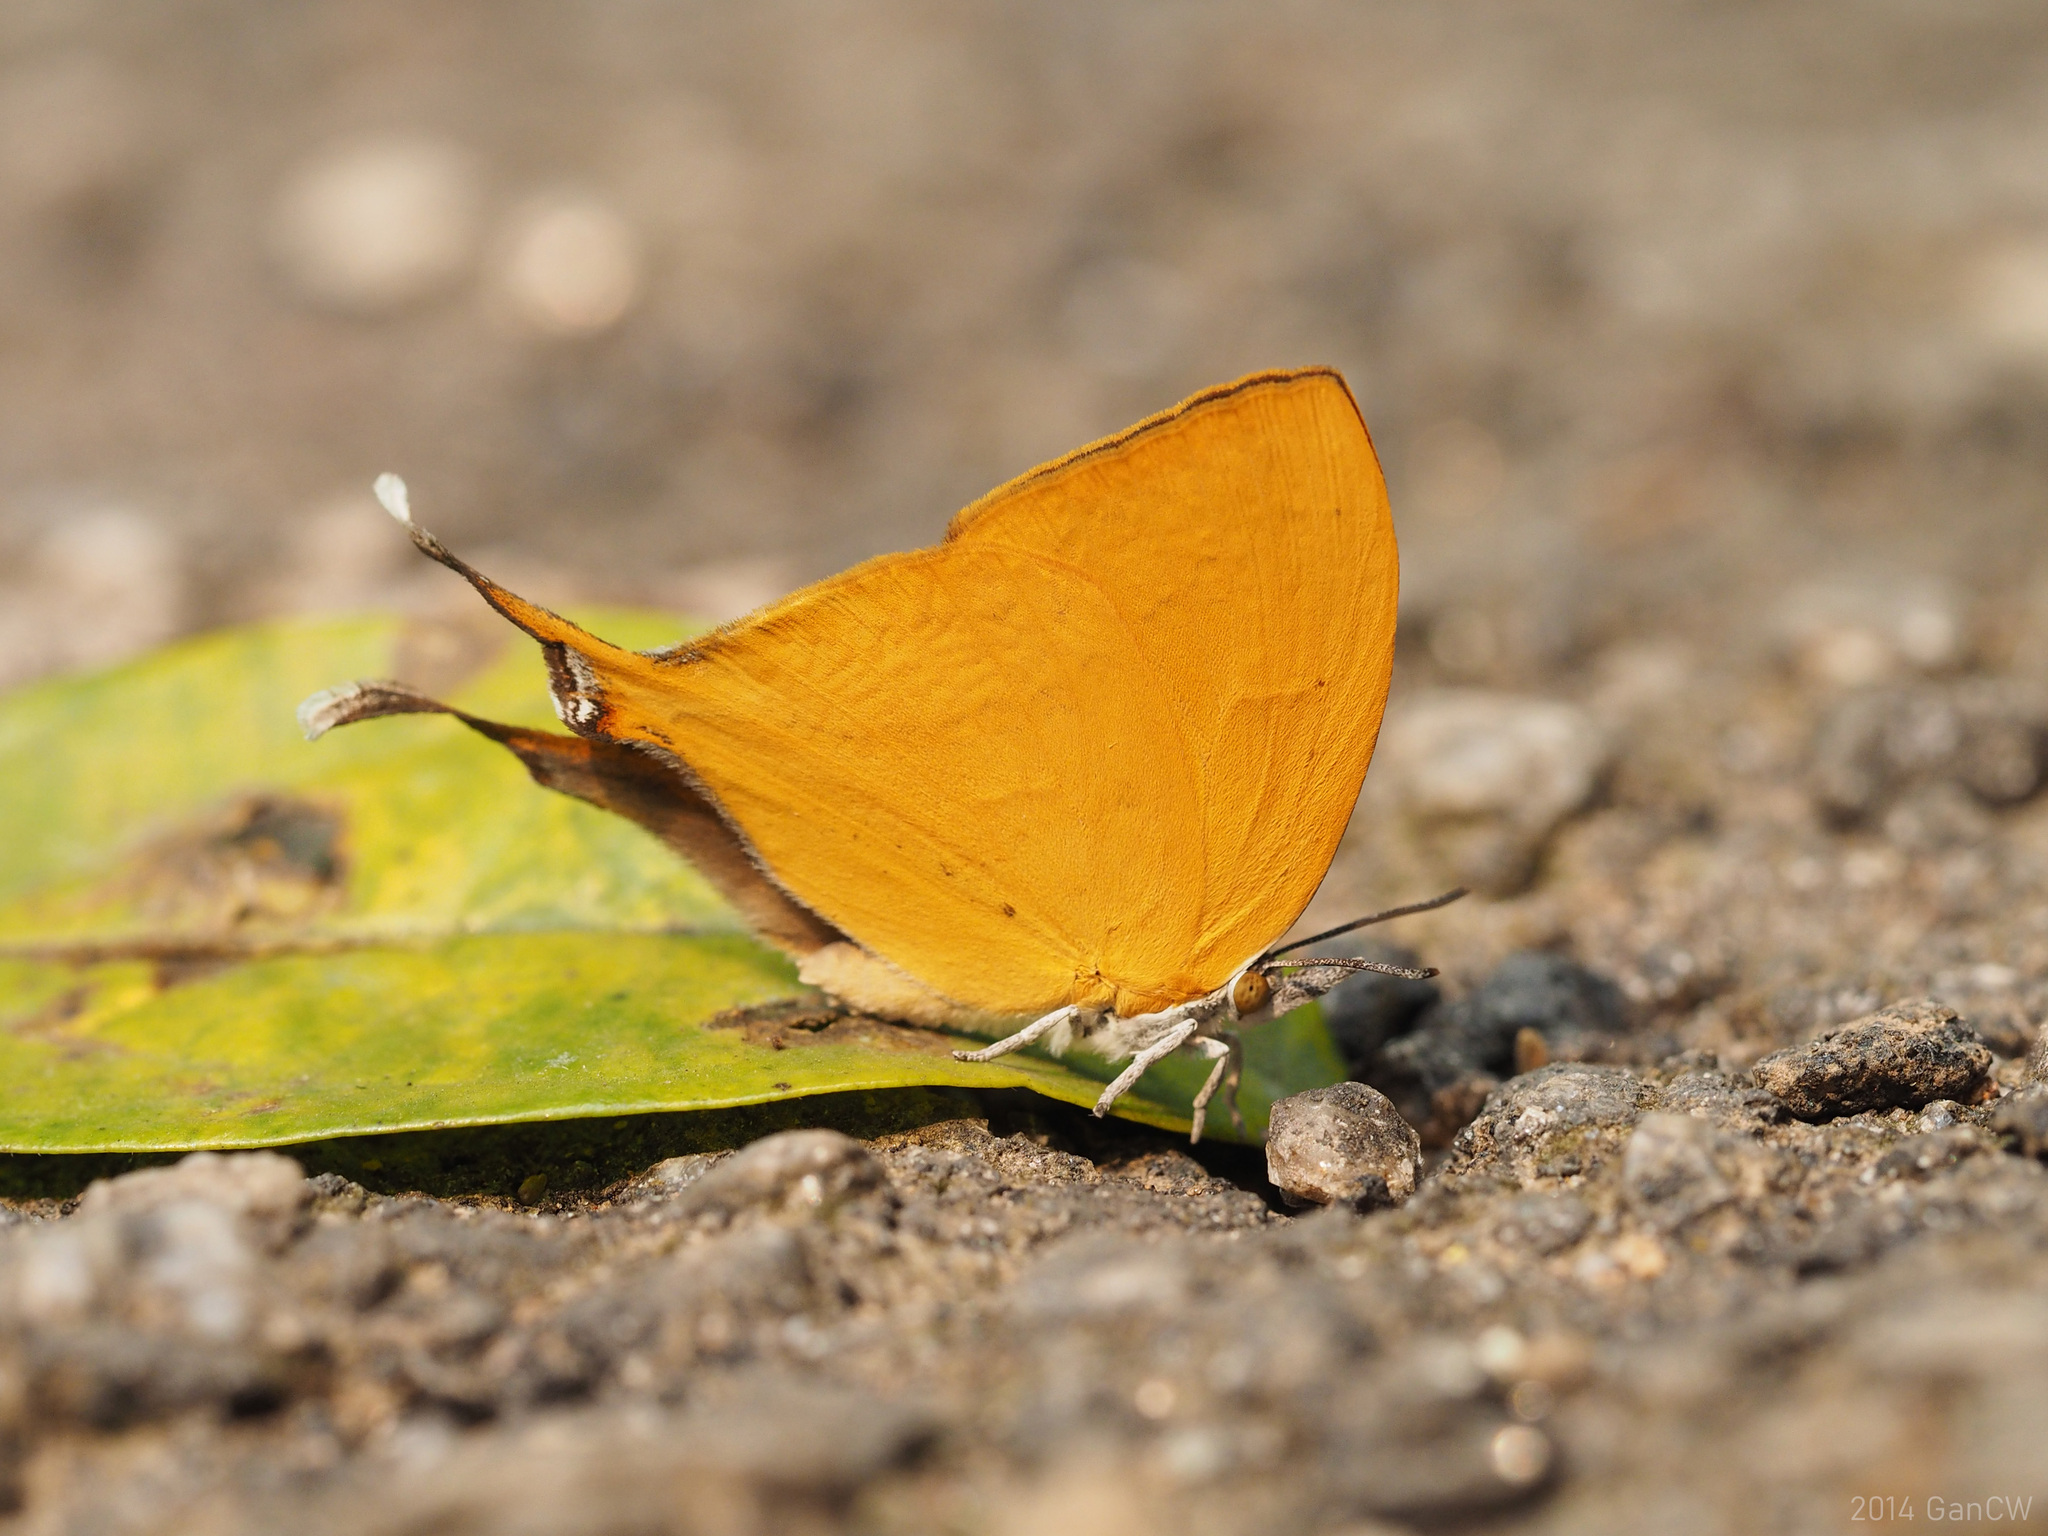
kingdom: Animalia
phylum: Arthropoda
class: Insecta
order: Lepidoptera
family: Lycaenidae
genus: Loxura
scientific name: Loxura atymnus
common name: Common yamfly
